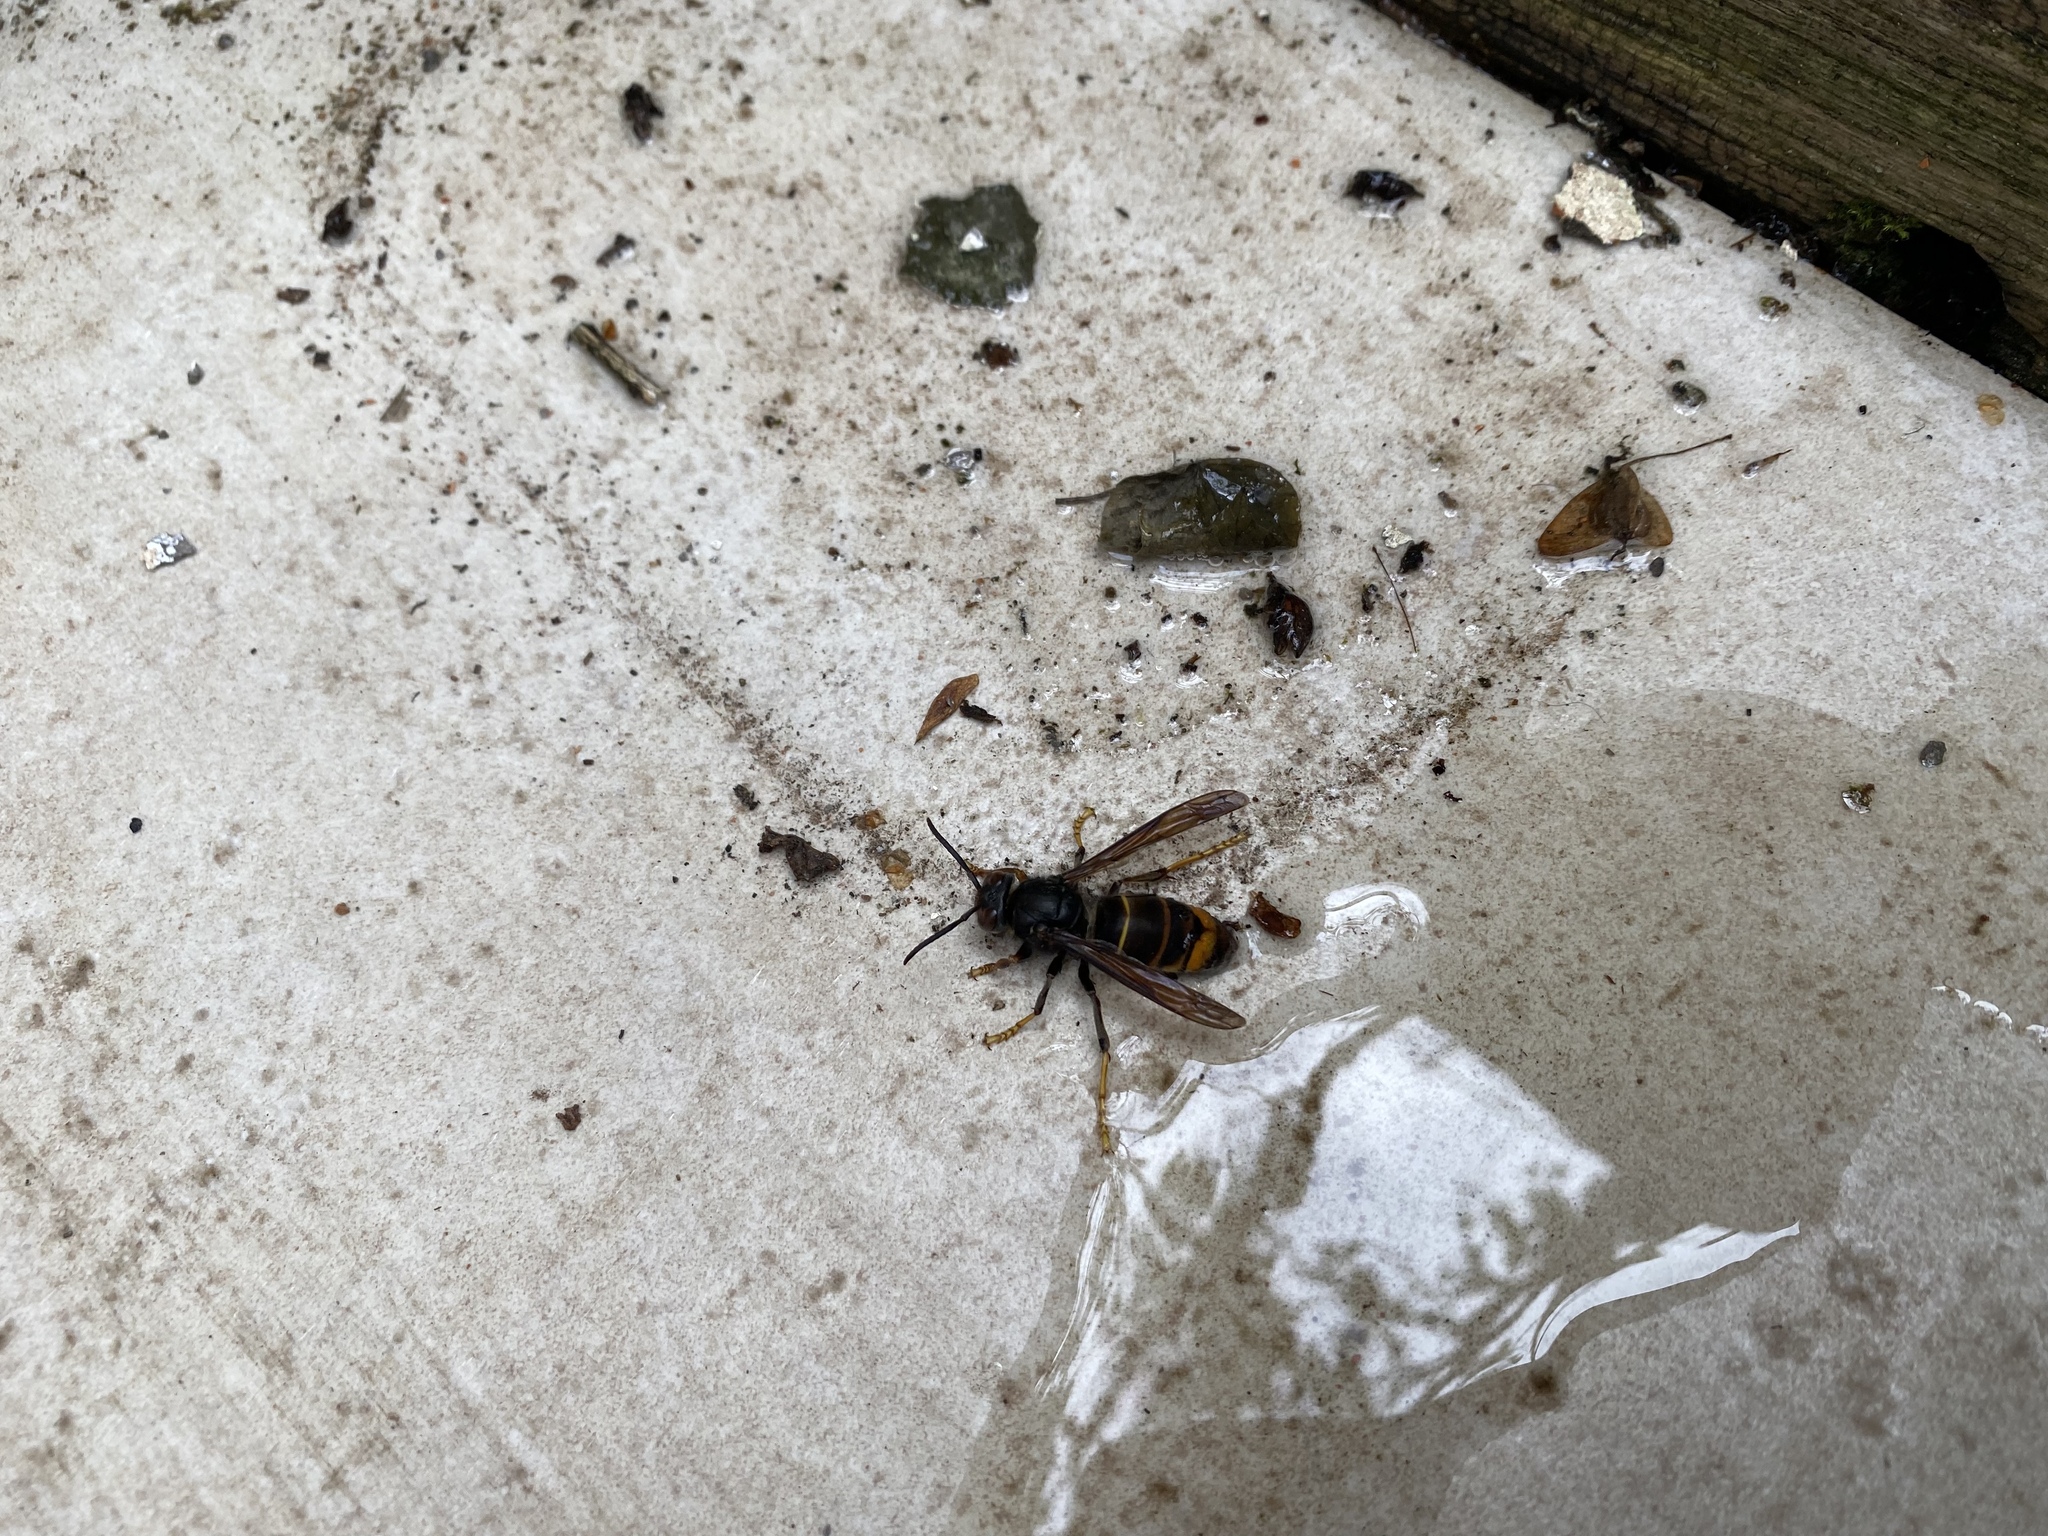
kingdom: Animalia
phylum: Arthropoda
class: Insecta
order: Hymenoptera
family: Vespidae
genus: Vespa
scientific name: Vespa velutina
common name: Asian hornet
